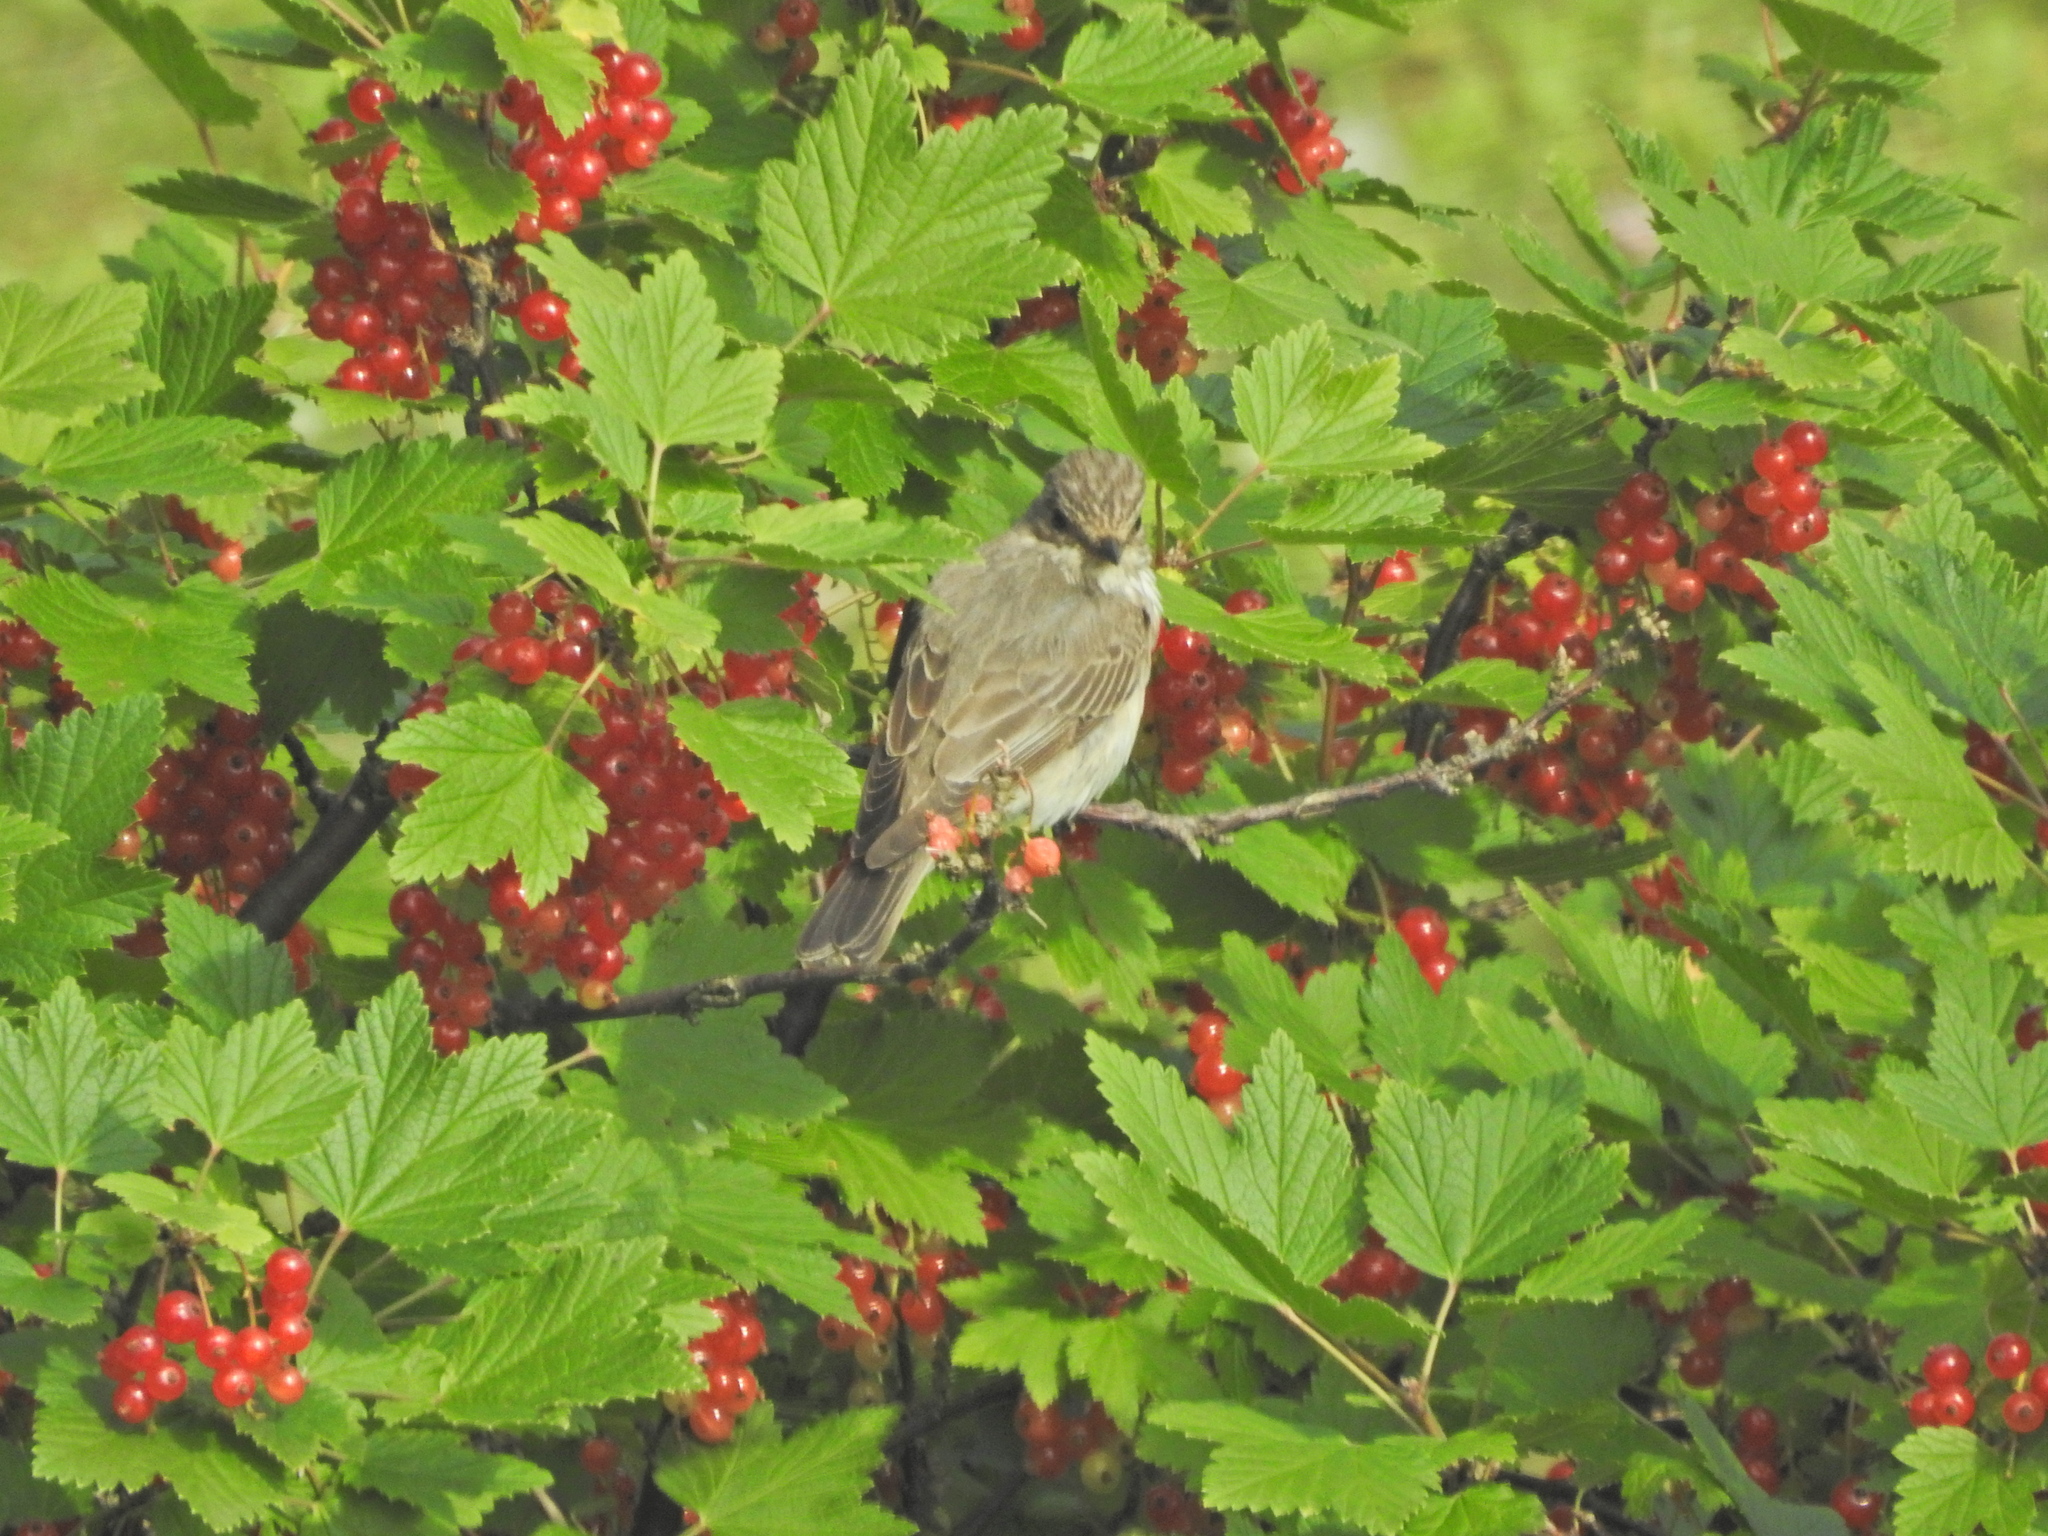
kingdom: Animalia
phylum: Chordata
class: Aves
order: Passeriformes
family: Muscicapidae
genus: Muscicapa
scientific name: Muscicapa striata
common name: Spotted flycatcher
